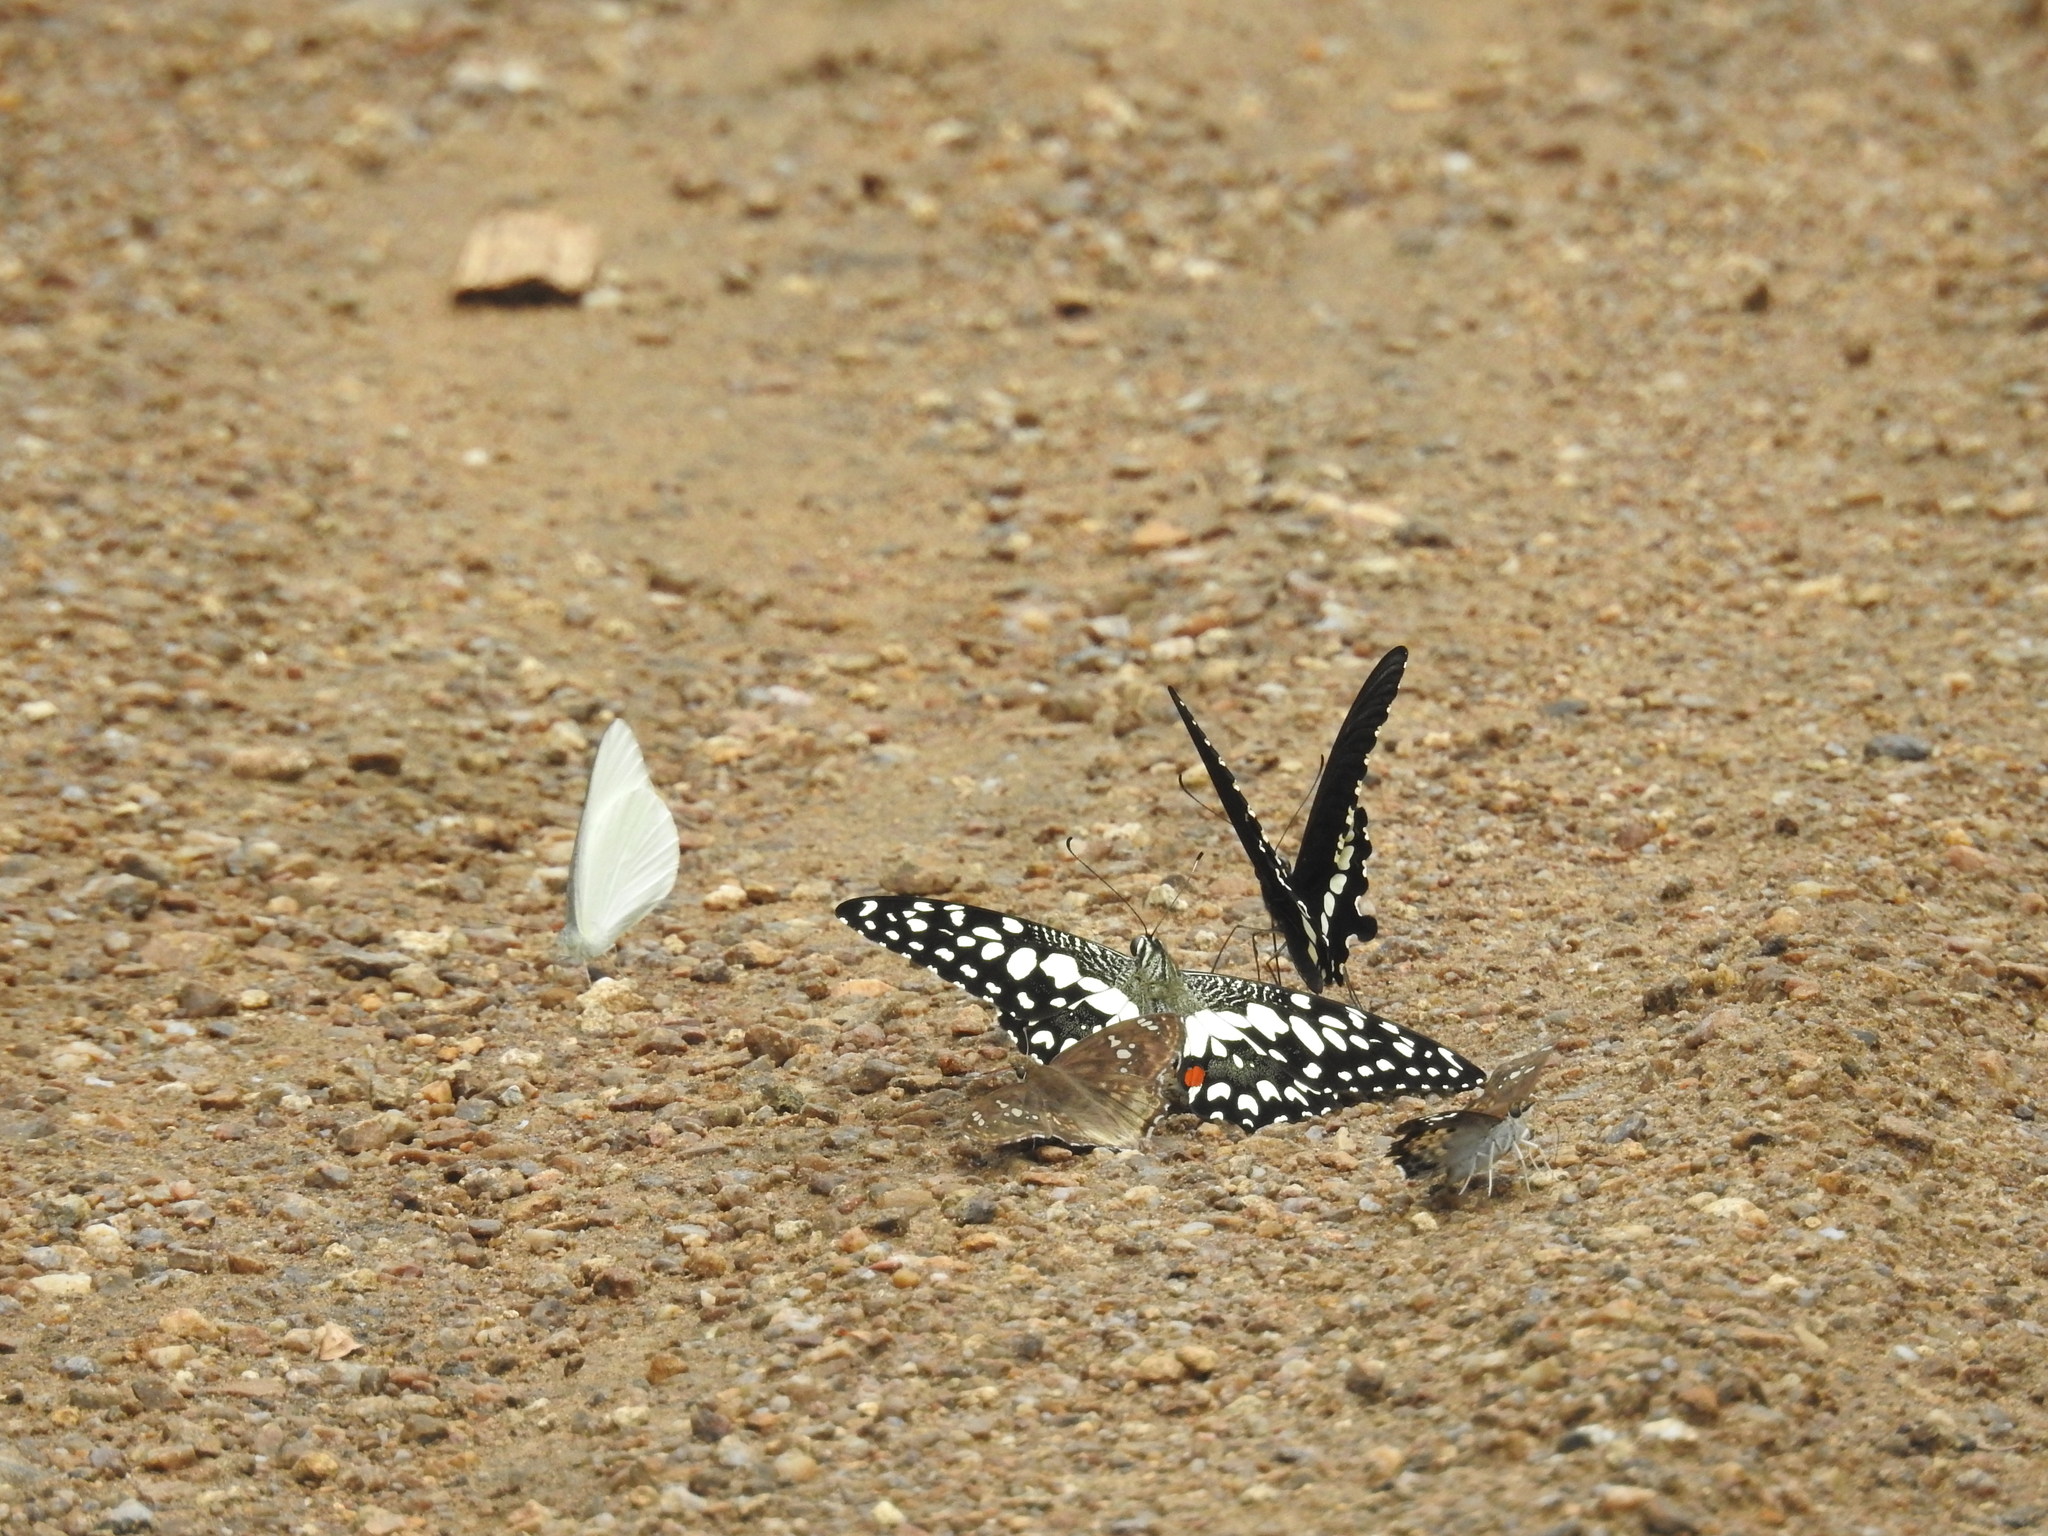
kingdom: Animalia
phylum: Arthropoda
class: Insecta
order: Lepidoptera
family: Papilionidae
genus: Papilio
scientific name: Papilio demoleus
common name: Lime butterfly
